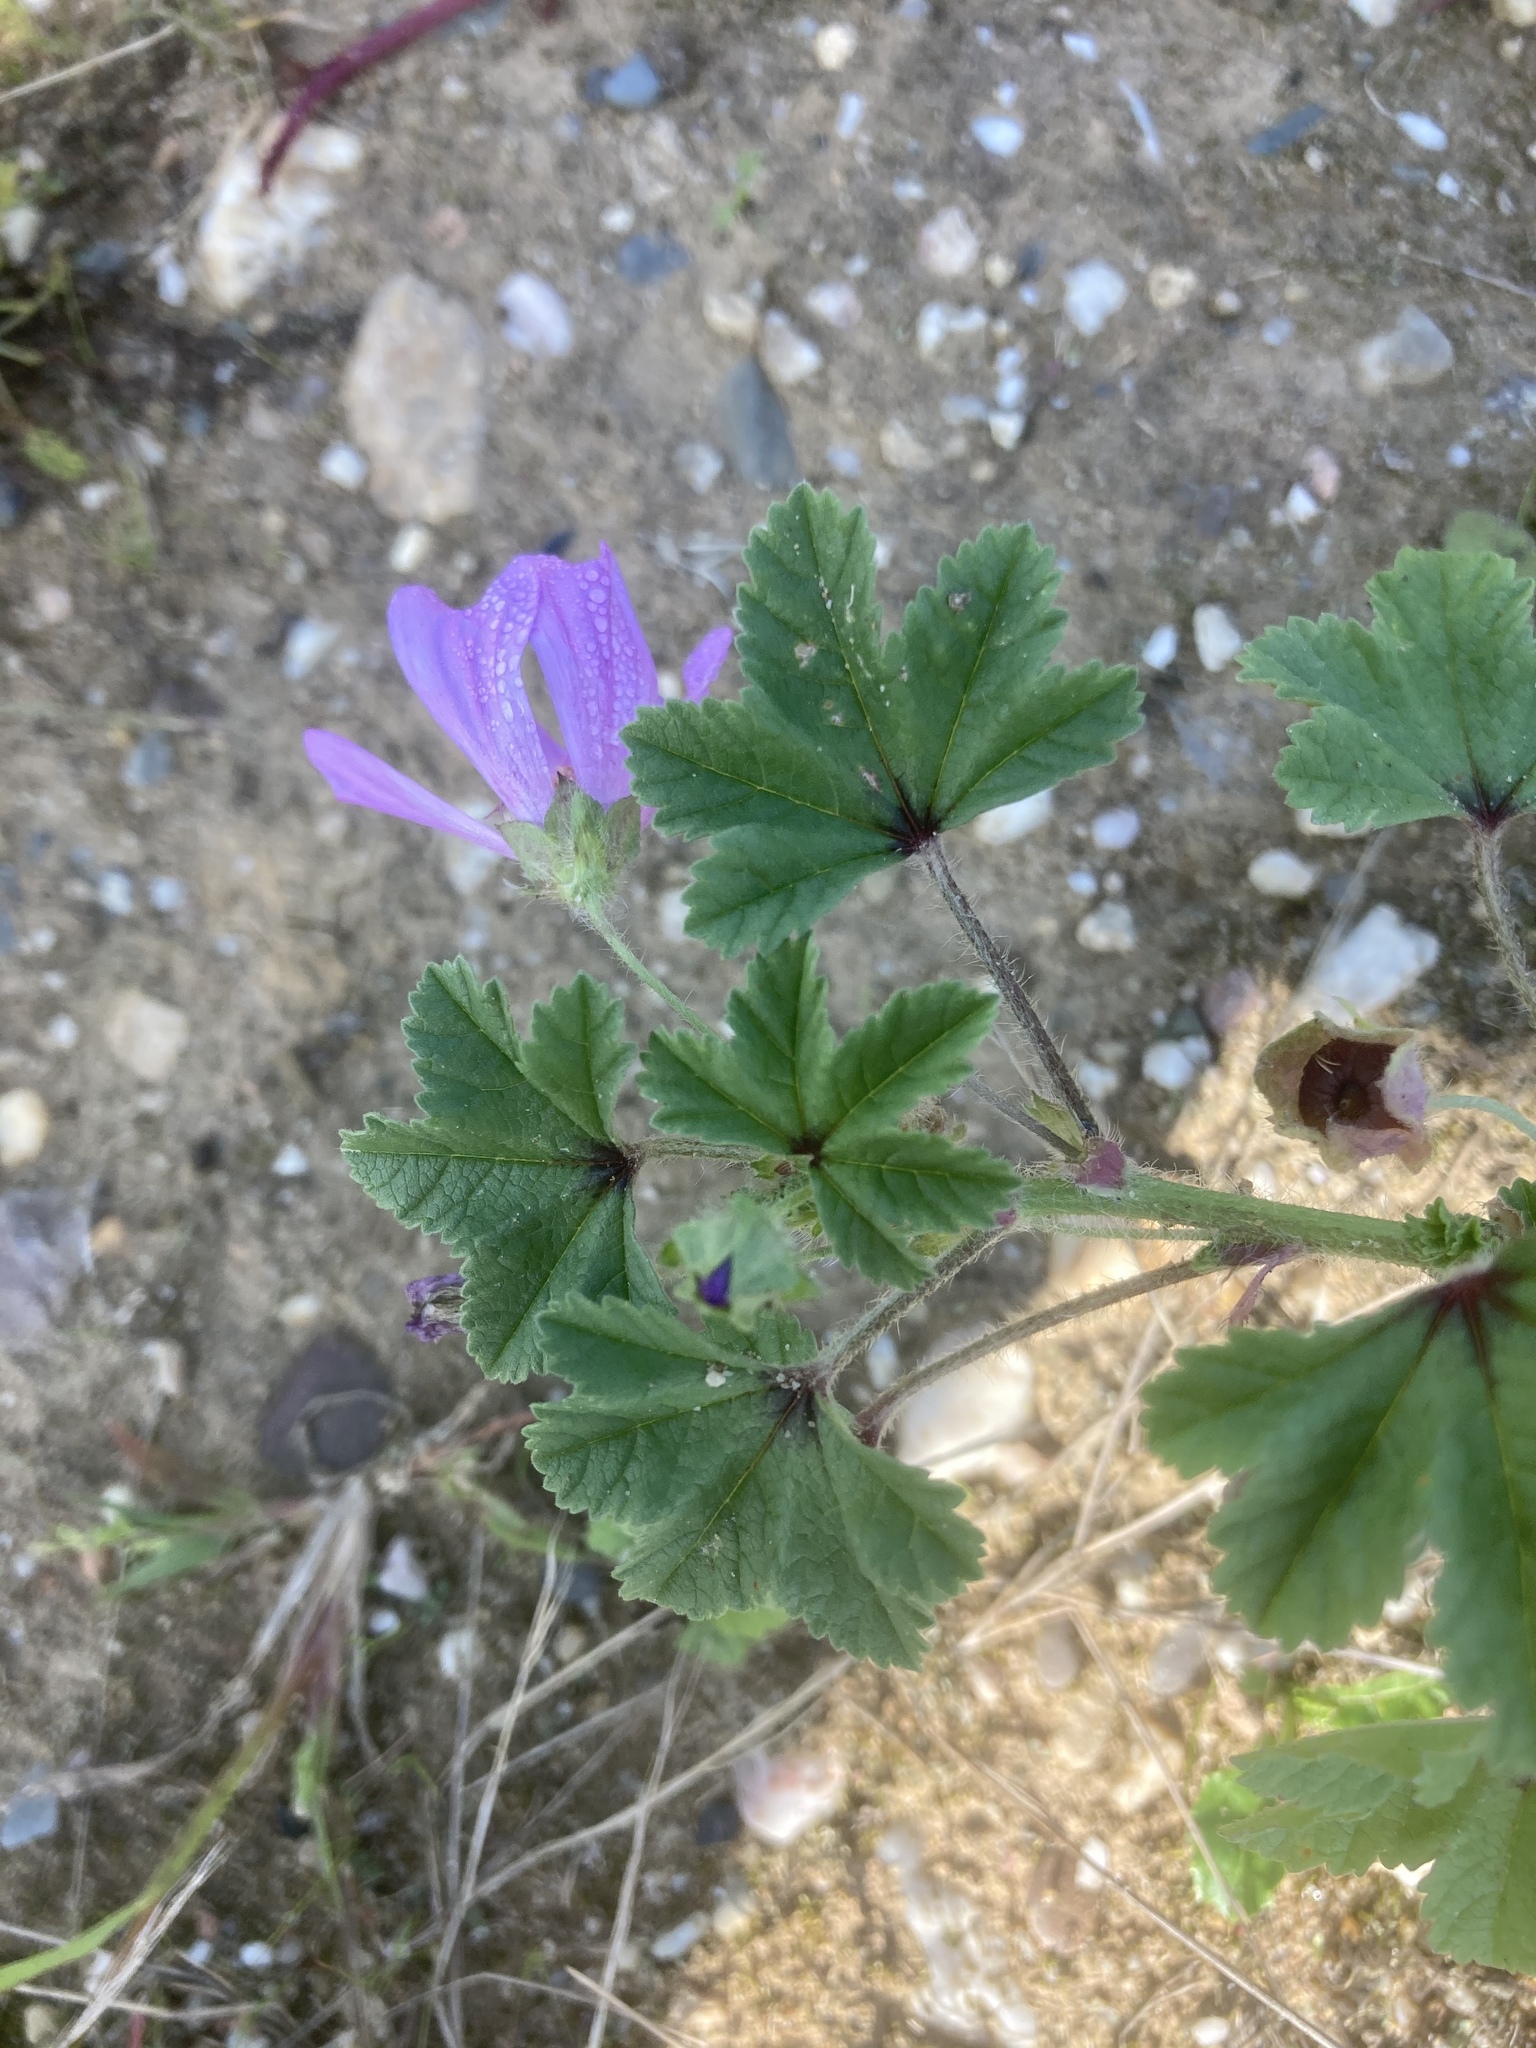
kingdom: Plantae
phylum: Tracheophyta
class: Magnoliopsida
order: Malvales
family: Malvaceae
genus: Malva
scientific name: Malva sylvestris
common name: Common mallow
